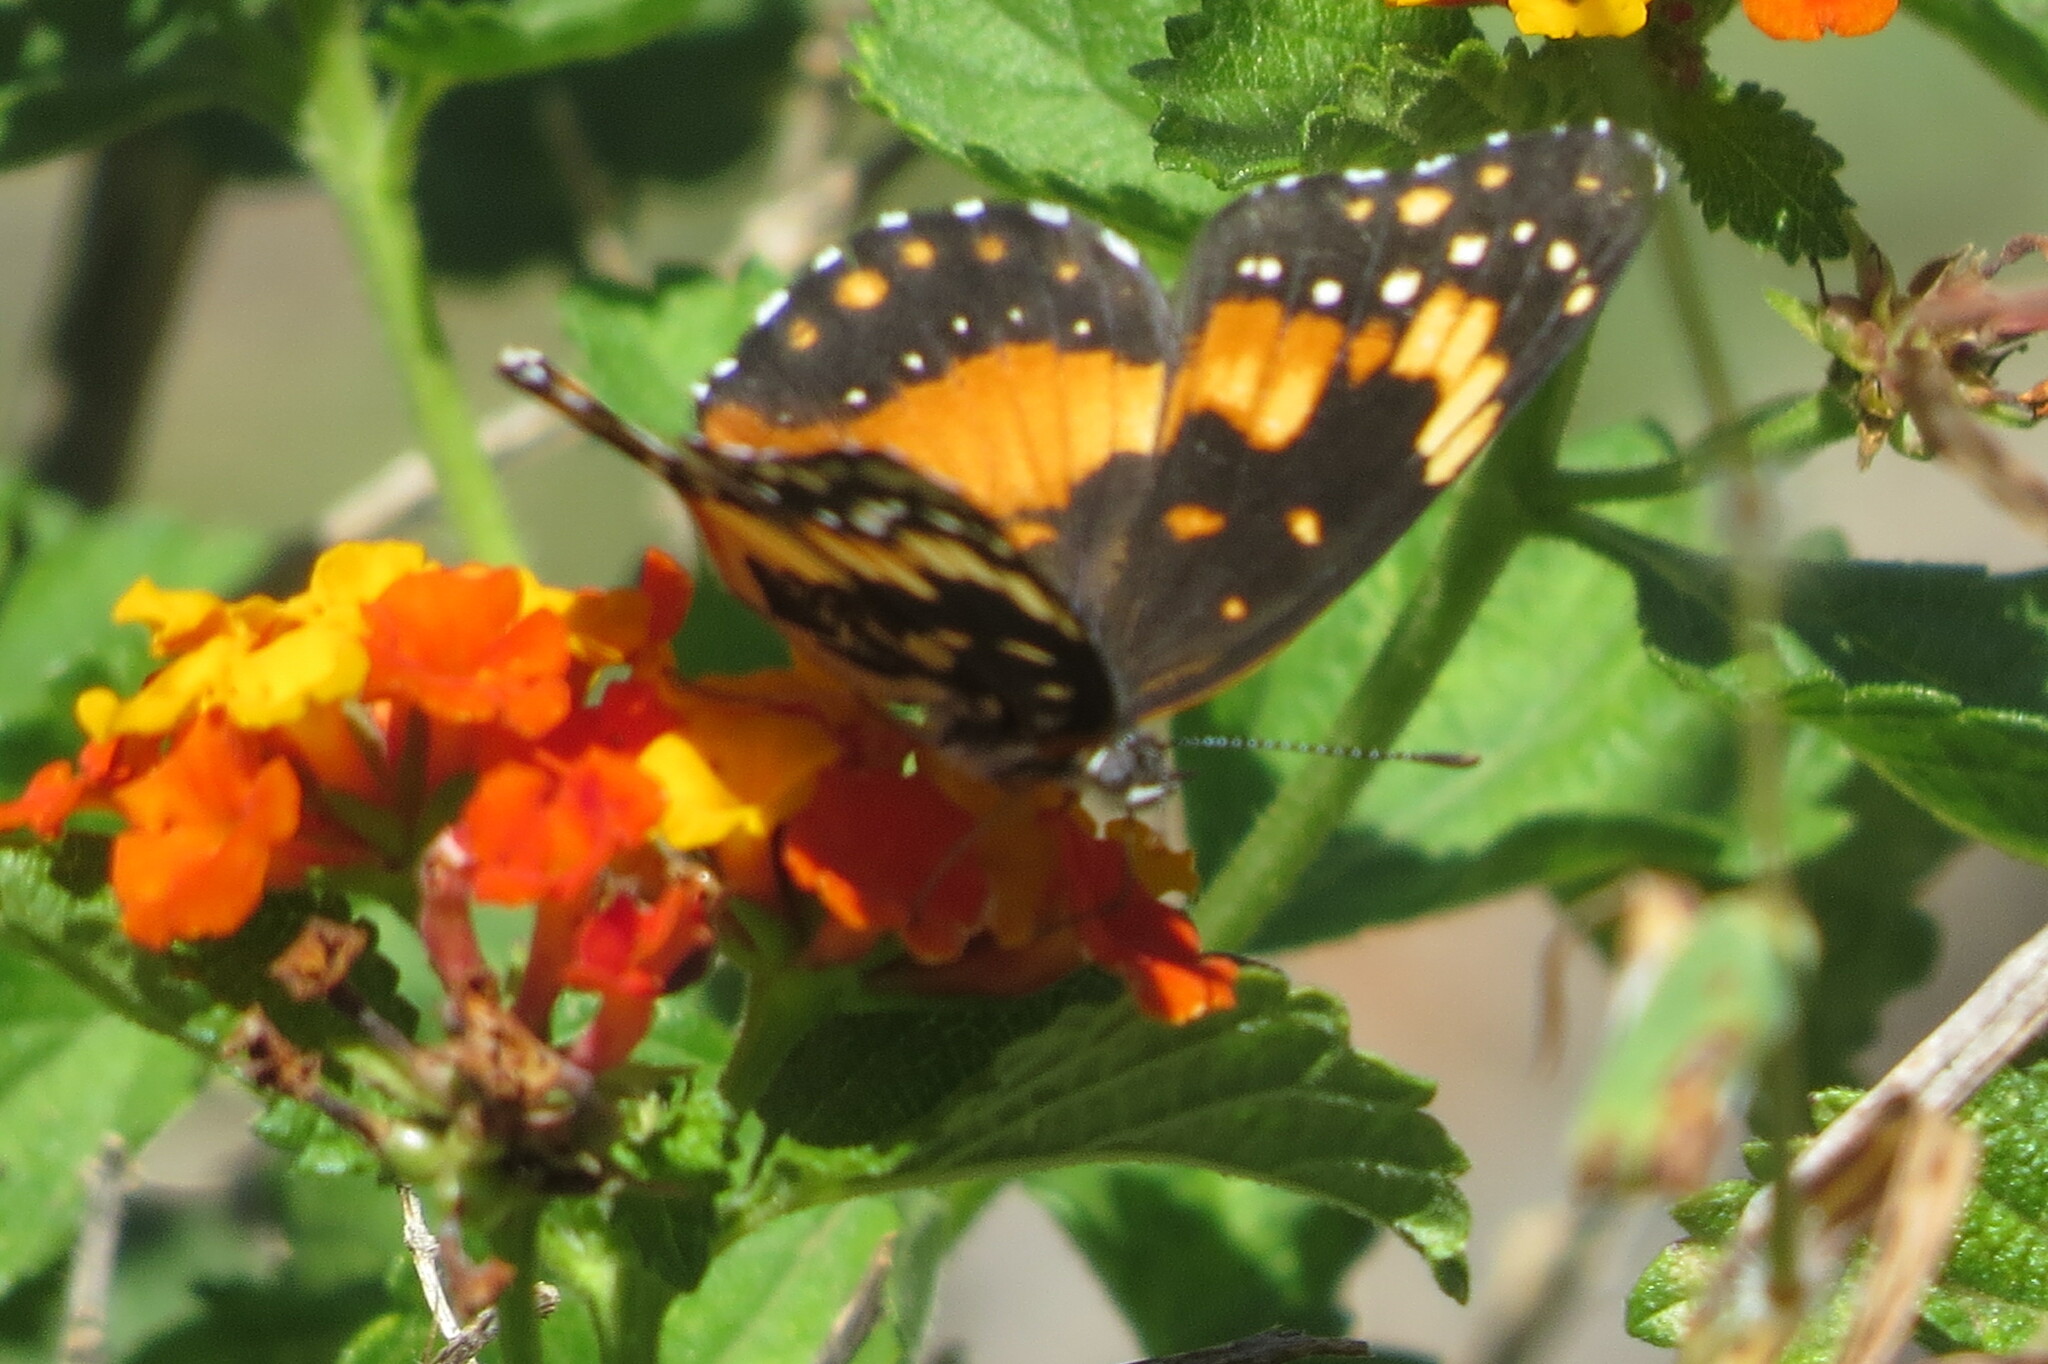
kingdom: Animalia
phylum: Arthropoda
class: Insecta
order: Lepidoptera
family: Nymphalidae
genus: Chlosyne
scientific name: Chlosyne lacinia
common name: Bordered patch
